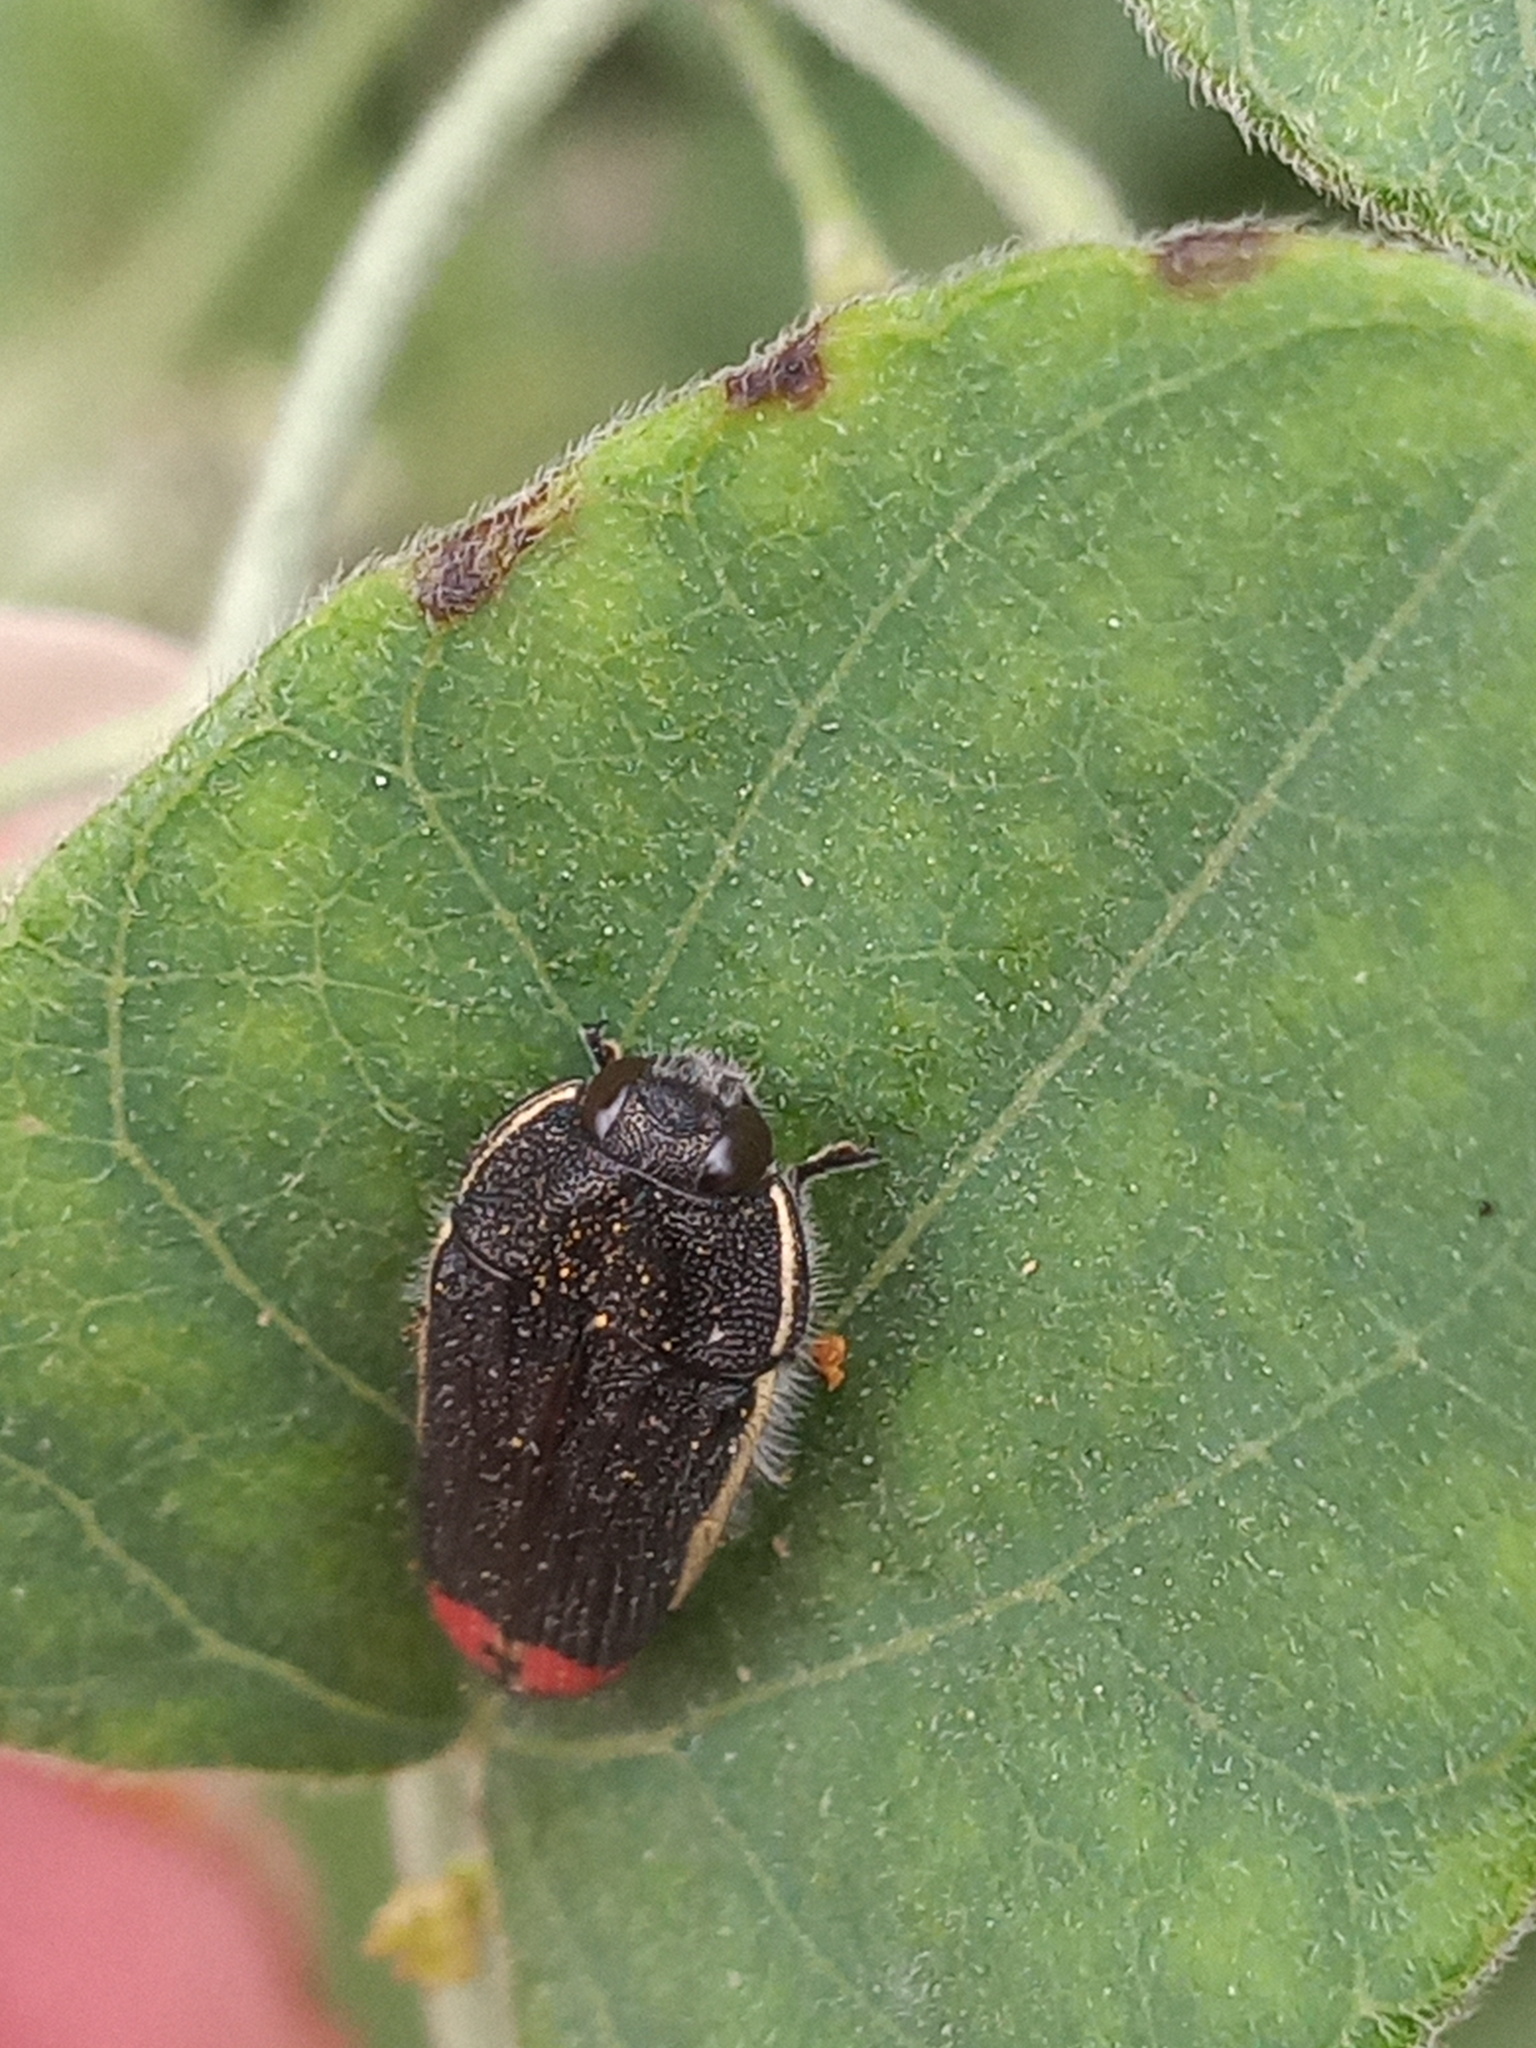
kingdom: Animalia
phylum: Arthropoda
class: Insecta
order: Coleoptera
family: Buprestidae
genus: Acmaeodera
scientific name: Acmaeodera flavomarginata
